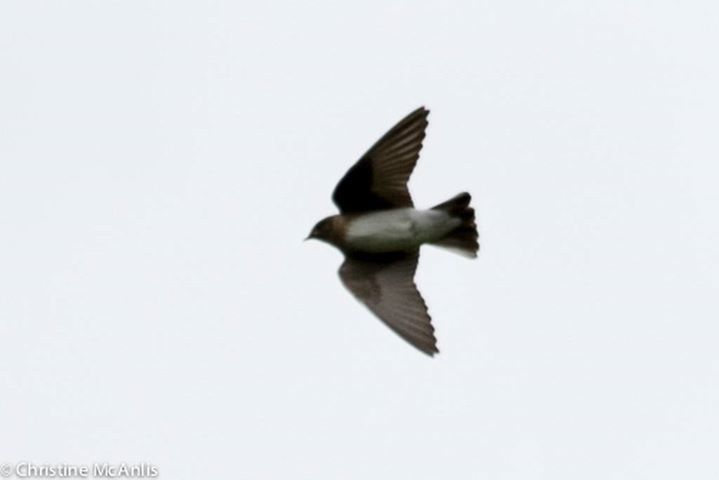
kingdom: Animalia
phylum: Chordata
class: Aves
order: Passeriformes
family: Hirundinidae
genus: Stelgidopteryx
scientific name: Stelgidopteryx serripennis
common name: Northern rough-winged swallow
